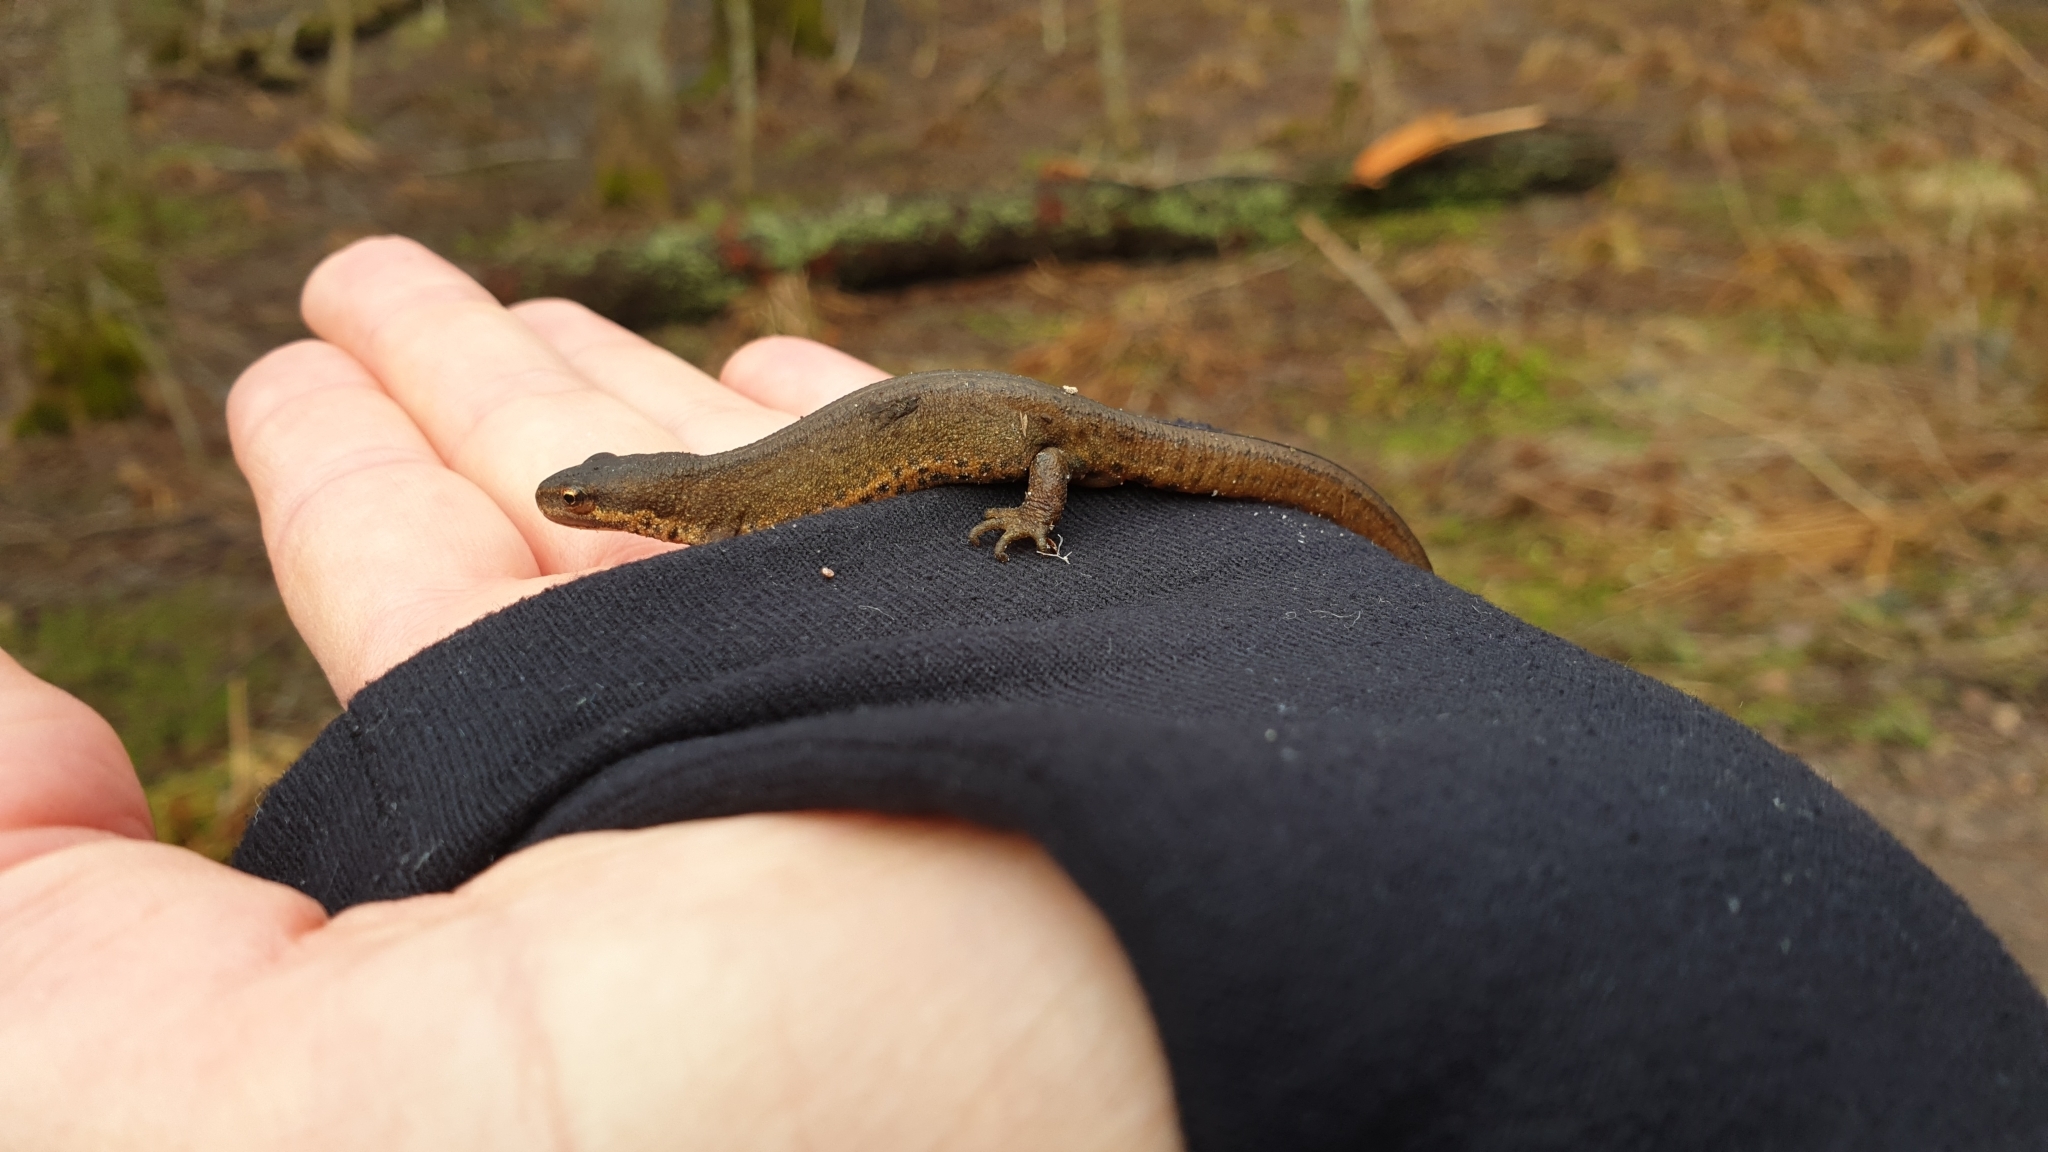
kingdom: Animalia
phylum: Chordata
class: Amphibia
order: Caudata
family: Salamandridae
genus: Lissotriton
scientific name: Lissotriton vulgaris
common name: Smooth newt
